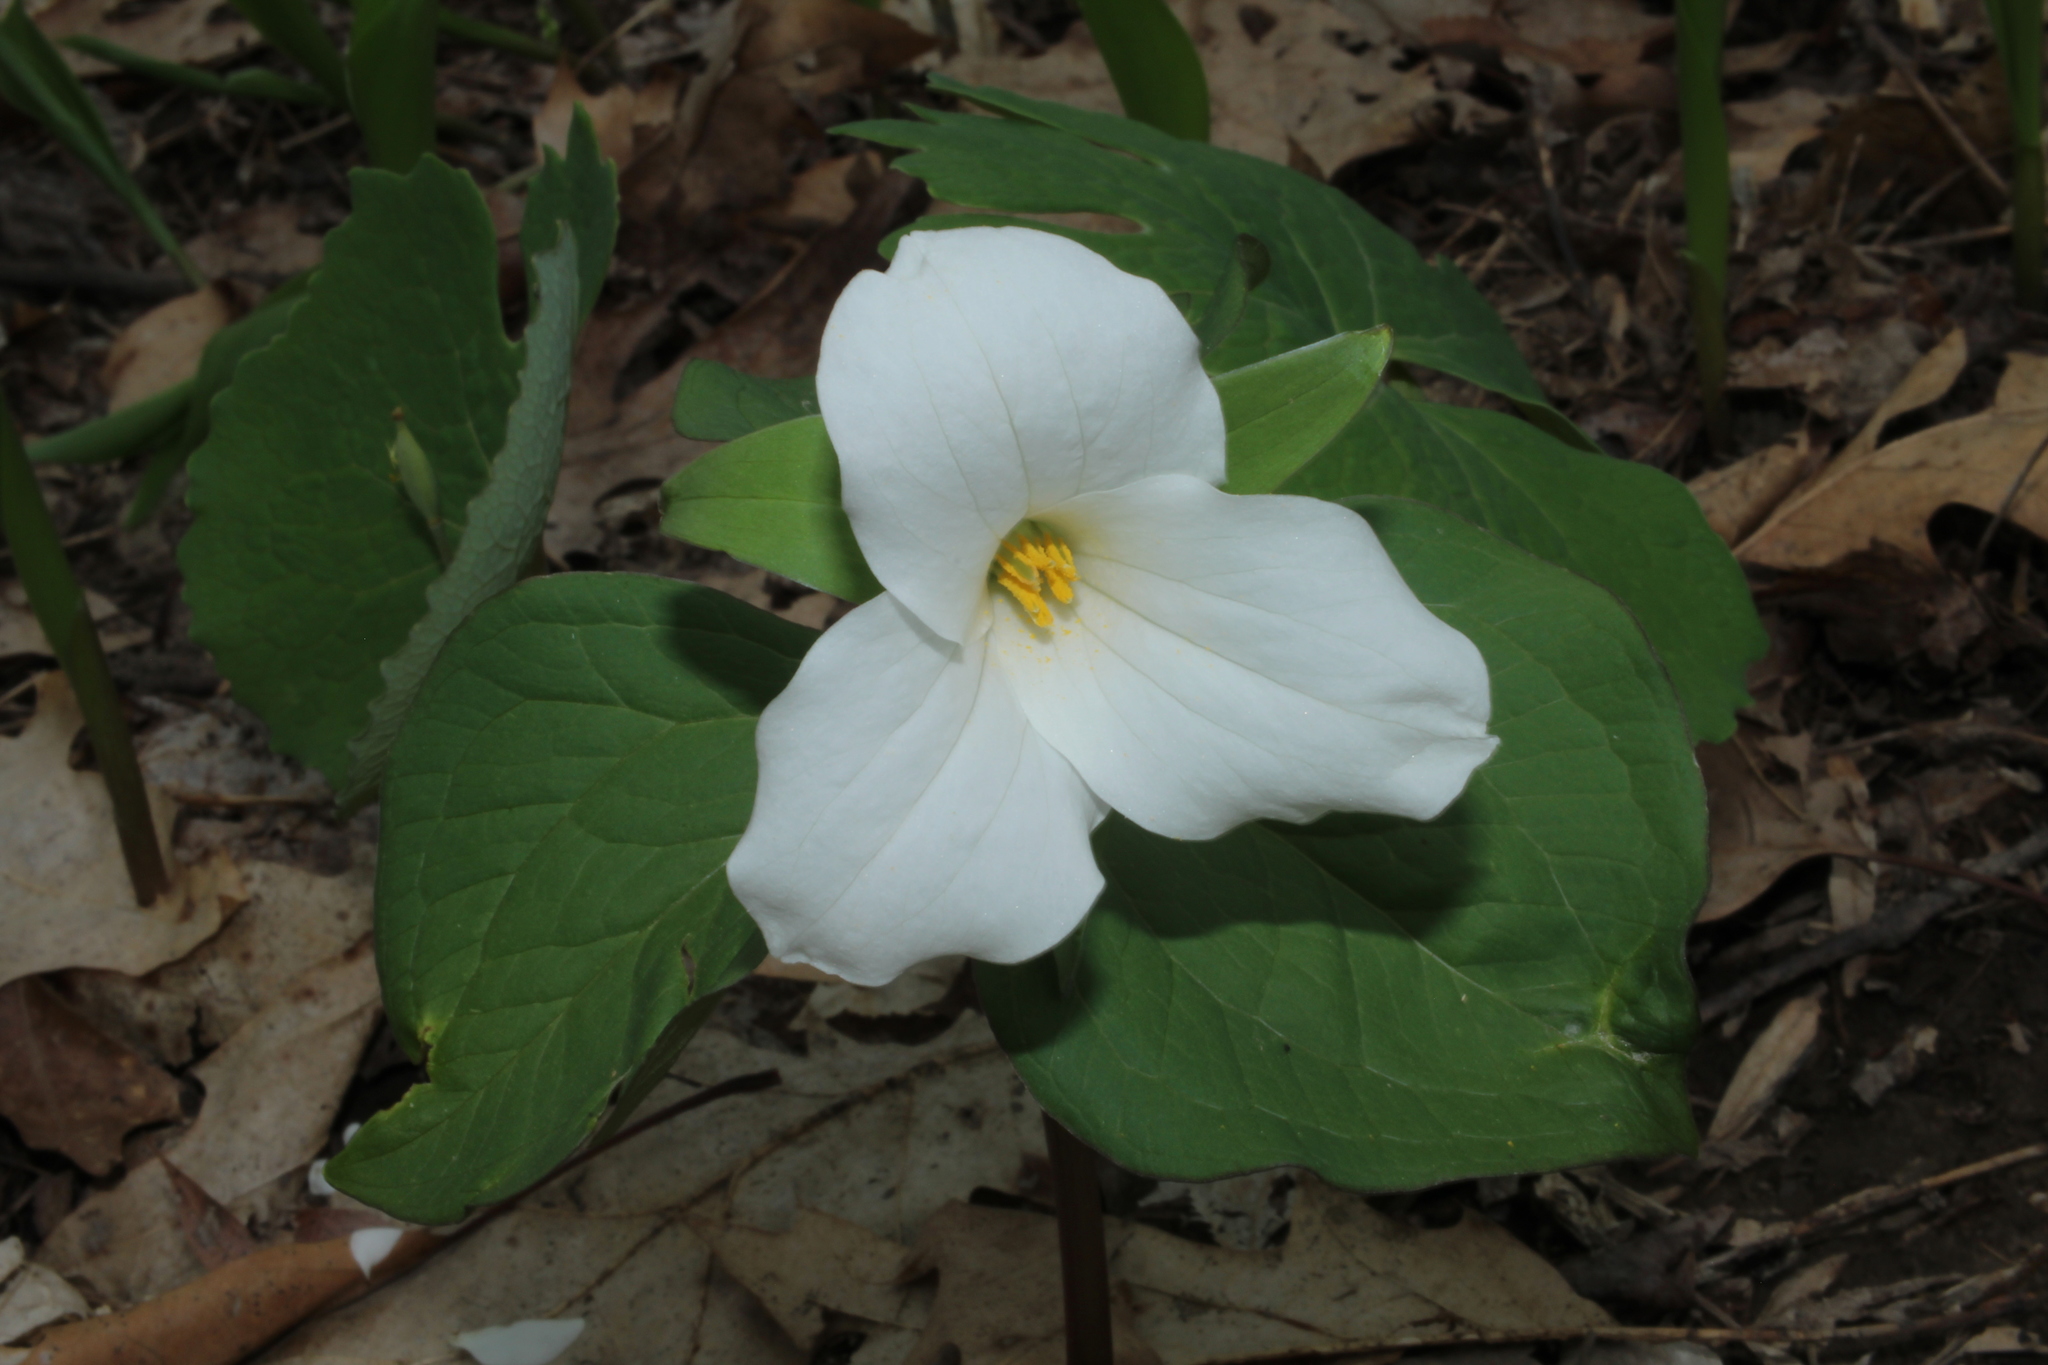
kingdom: Plantae
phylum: Tracheophyta
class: Liliopsida
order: Liliales
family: Melanthiaceae
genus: Trillium
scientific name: Trillium grandiflorum
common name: Great white trillium
